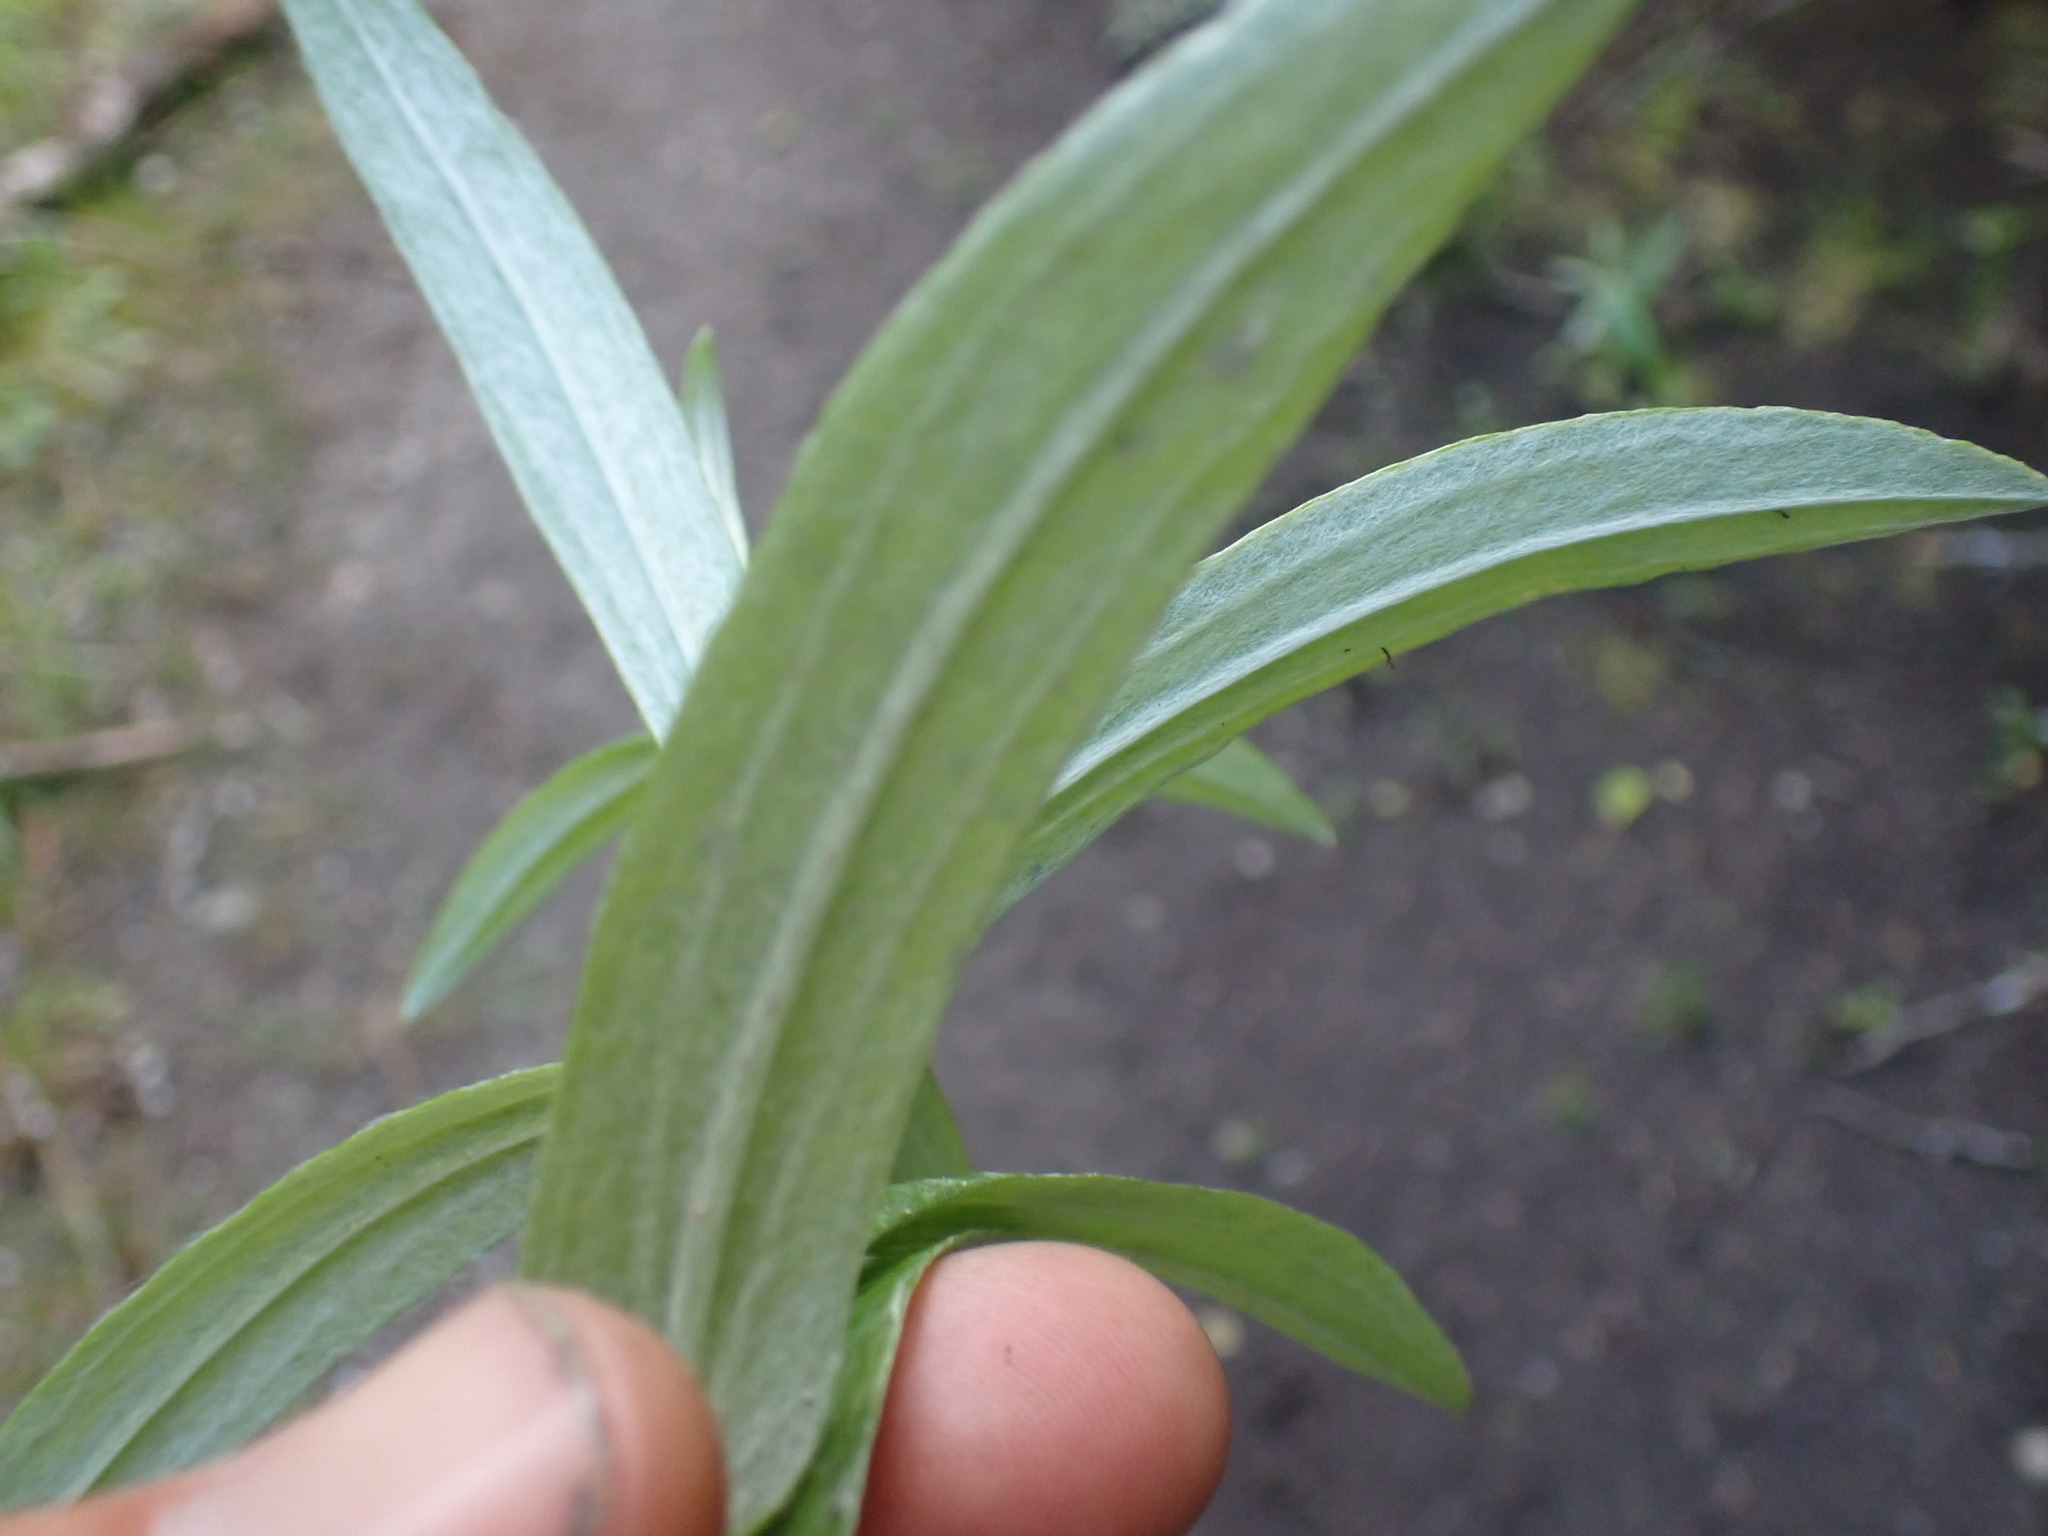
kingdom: Plantae
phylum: Tracheophyta
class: Magnoliopsida
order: Asterales
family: Asteraceae
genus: Anaphalis
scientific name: Anaphalis margaritacea
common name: Pearly everlasting
